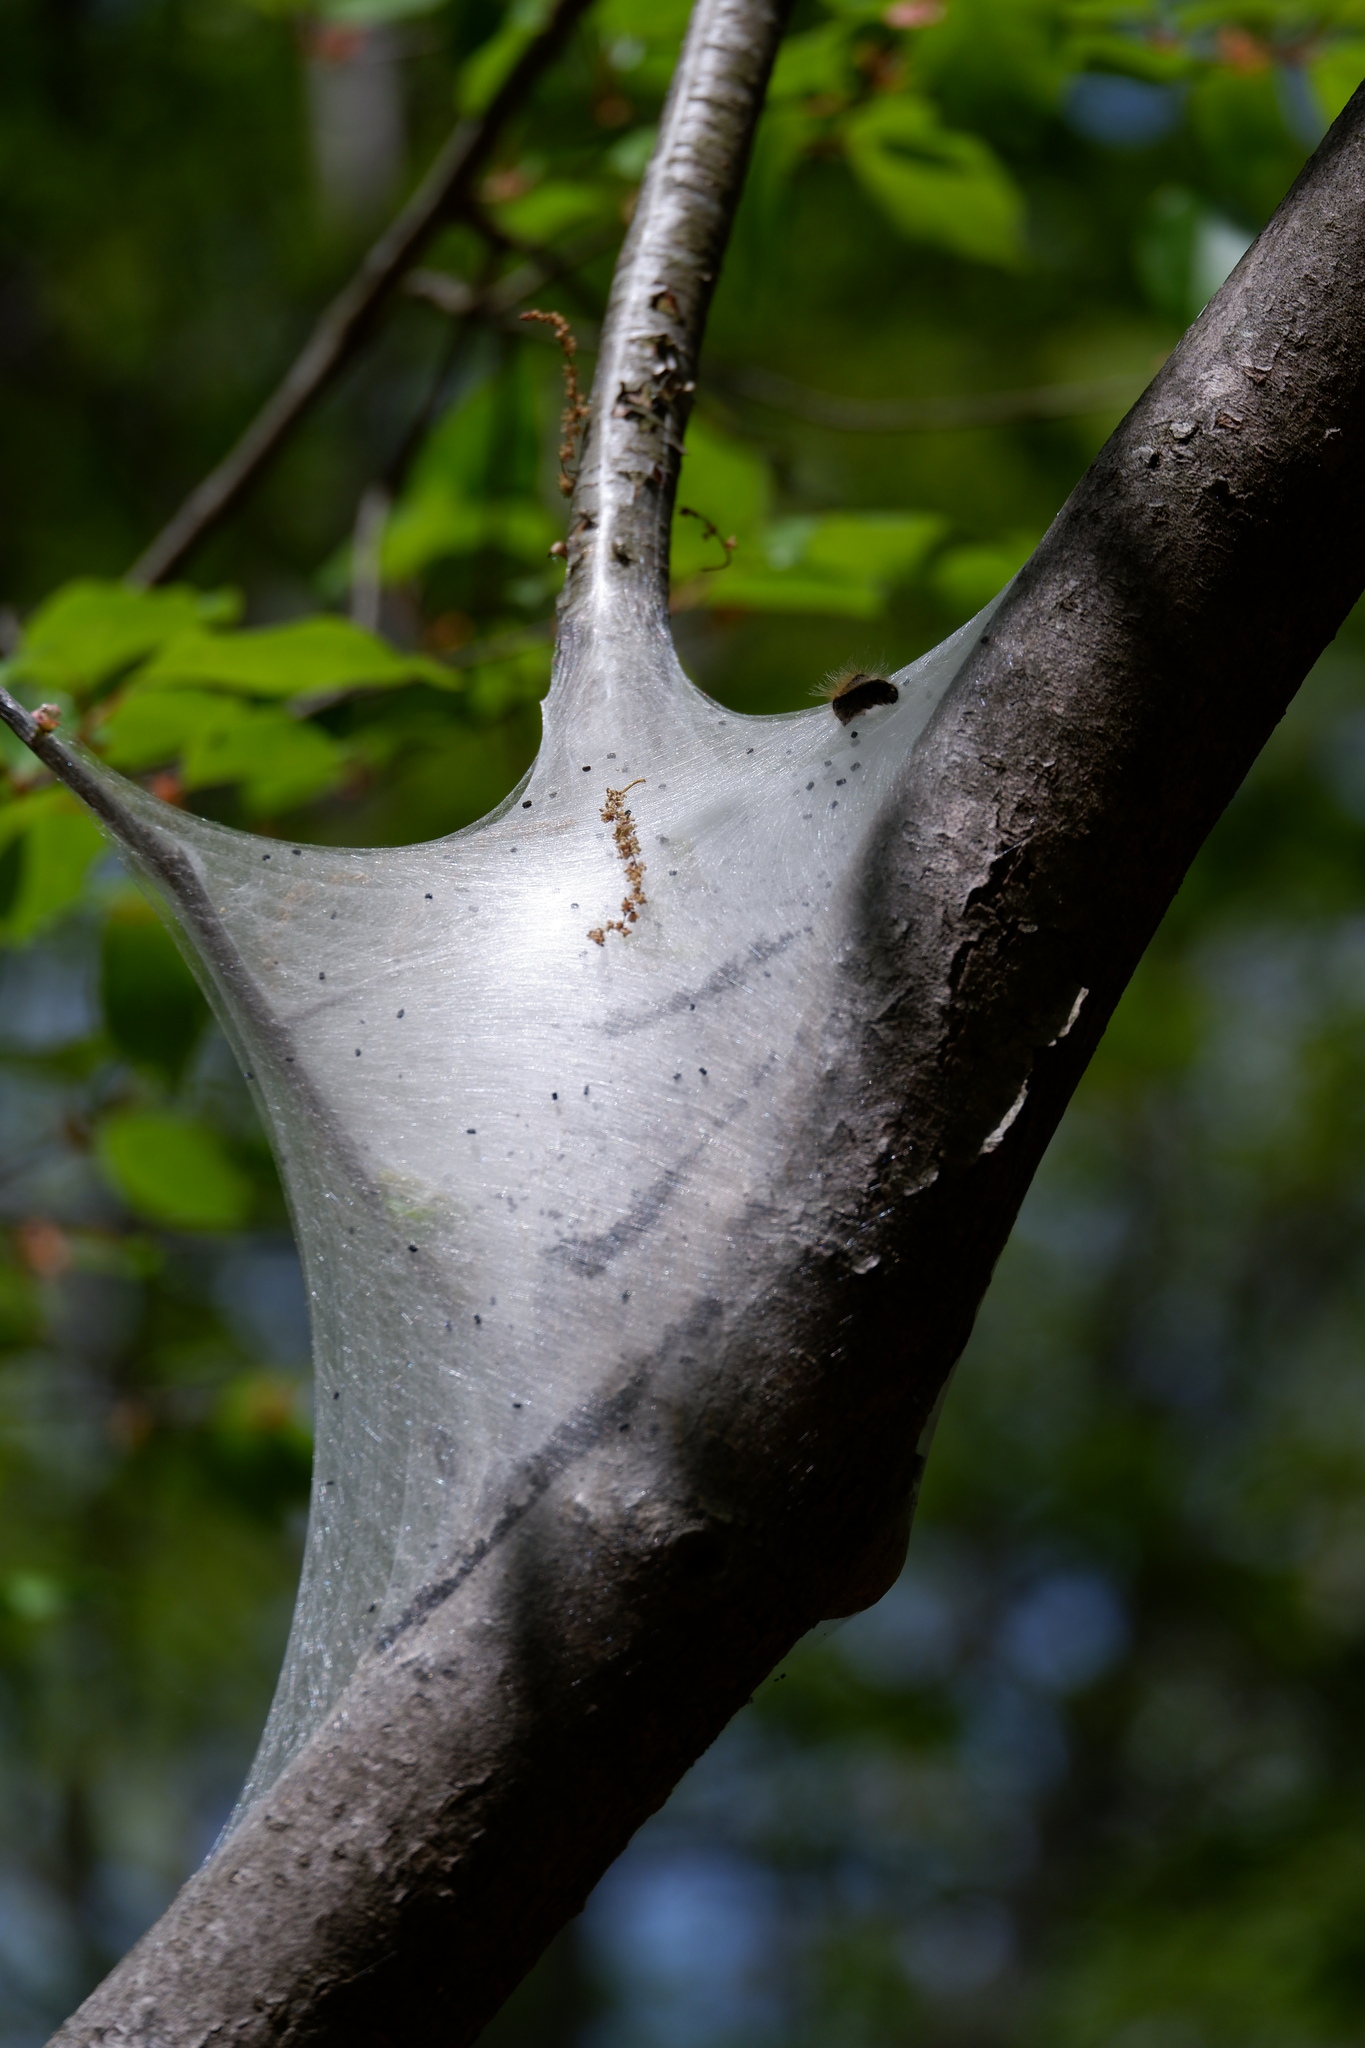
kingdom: Animalia
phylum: Arthropoda
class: Insecta
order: Lepidoptera
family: Lasiocampidae
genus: Malacosoma
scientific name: Malacosoma americana
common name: Eastern tent caterpillar moth
